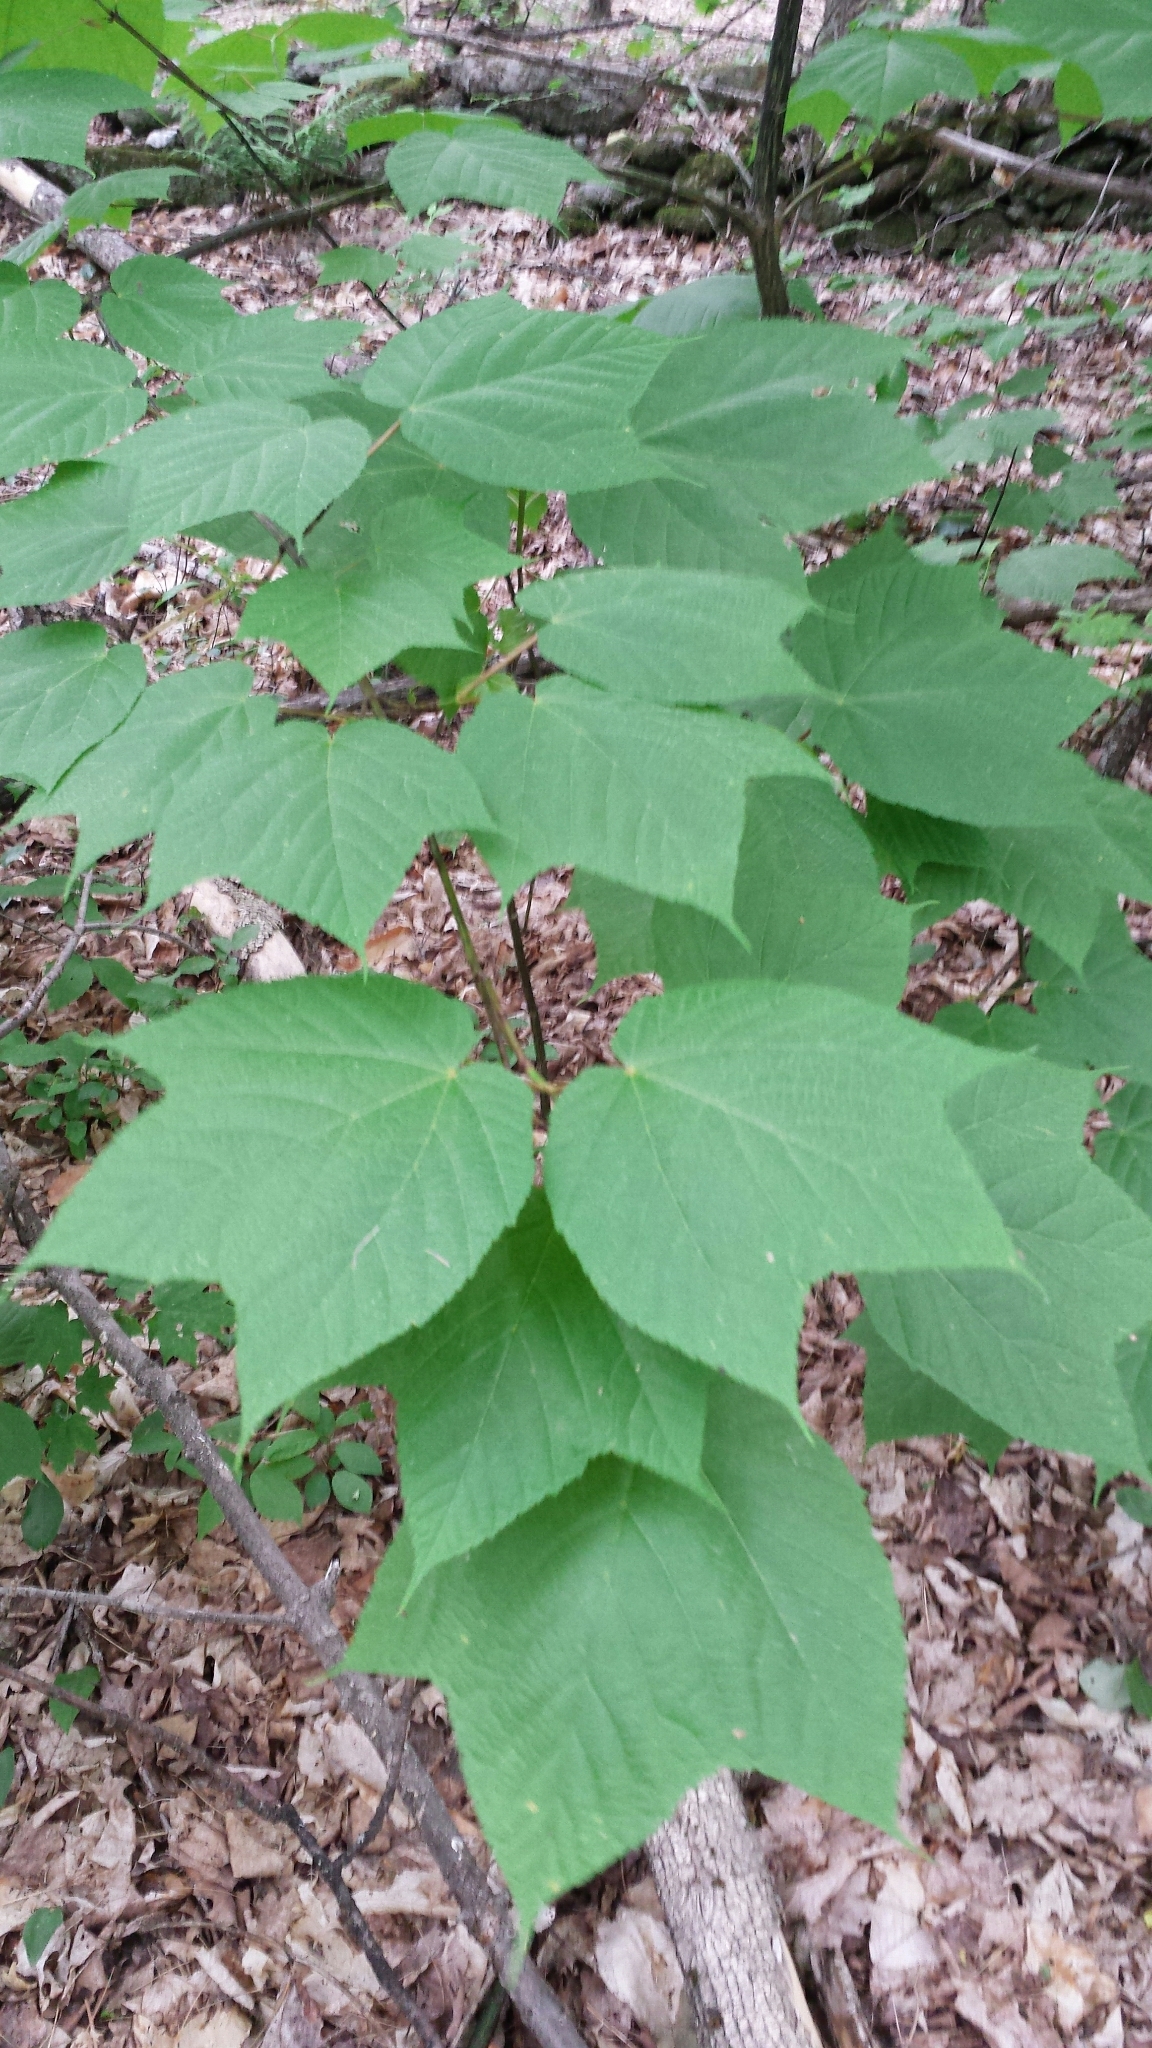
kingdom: Plantae
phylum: Tracheophyta
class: Magnoliopsida
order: Sapindales
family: Sapindaceae
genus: Acer
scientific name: Acer pensylvanicum
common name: Moosewood
